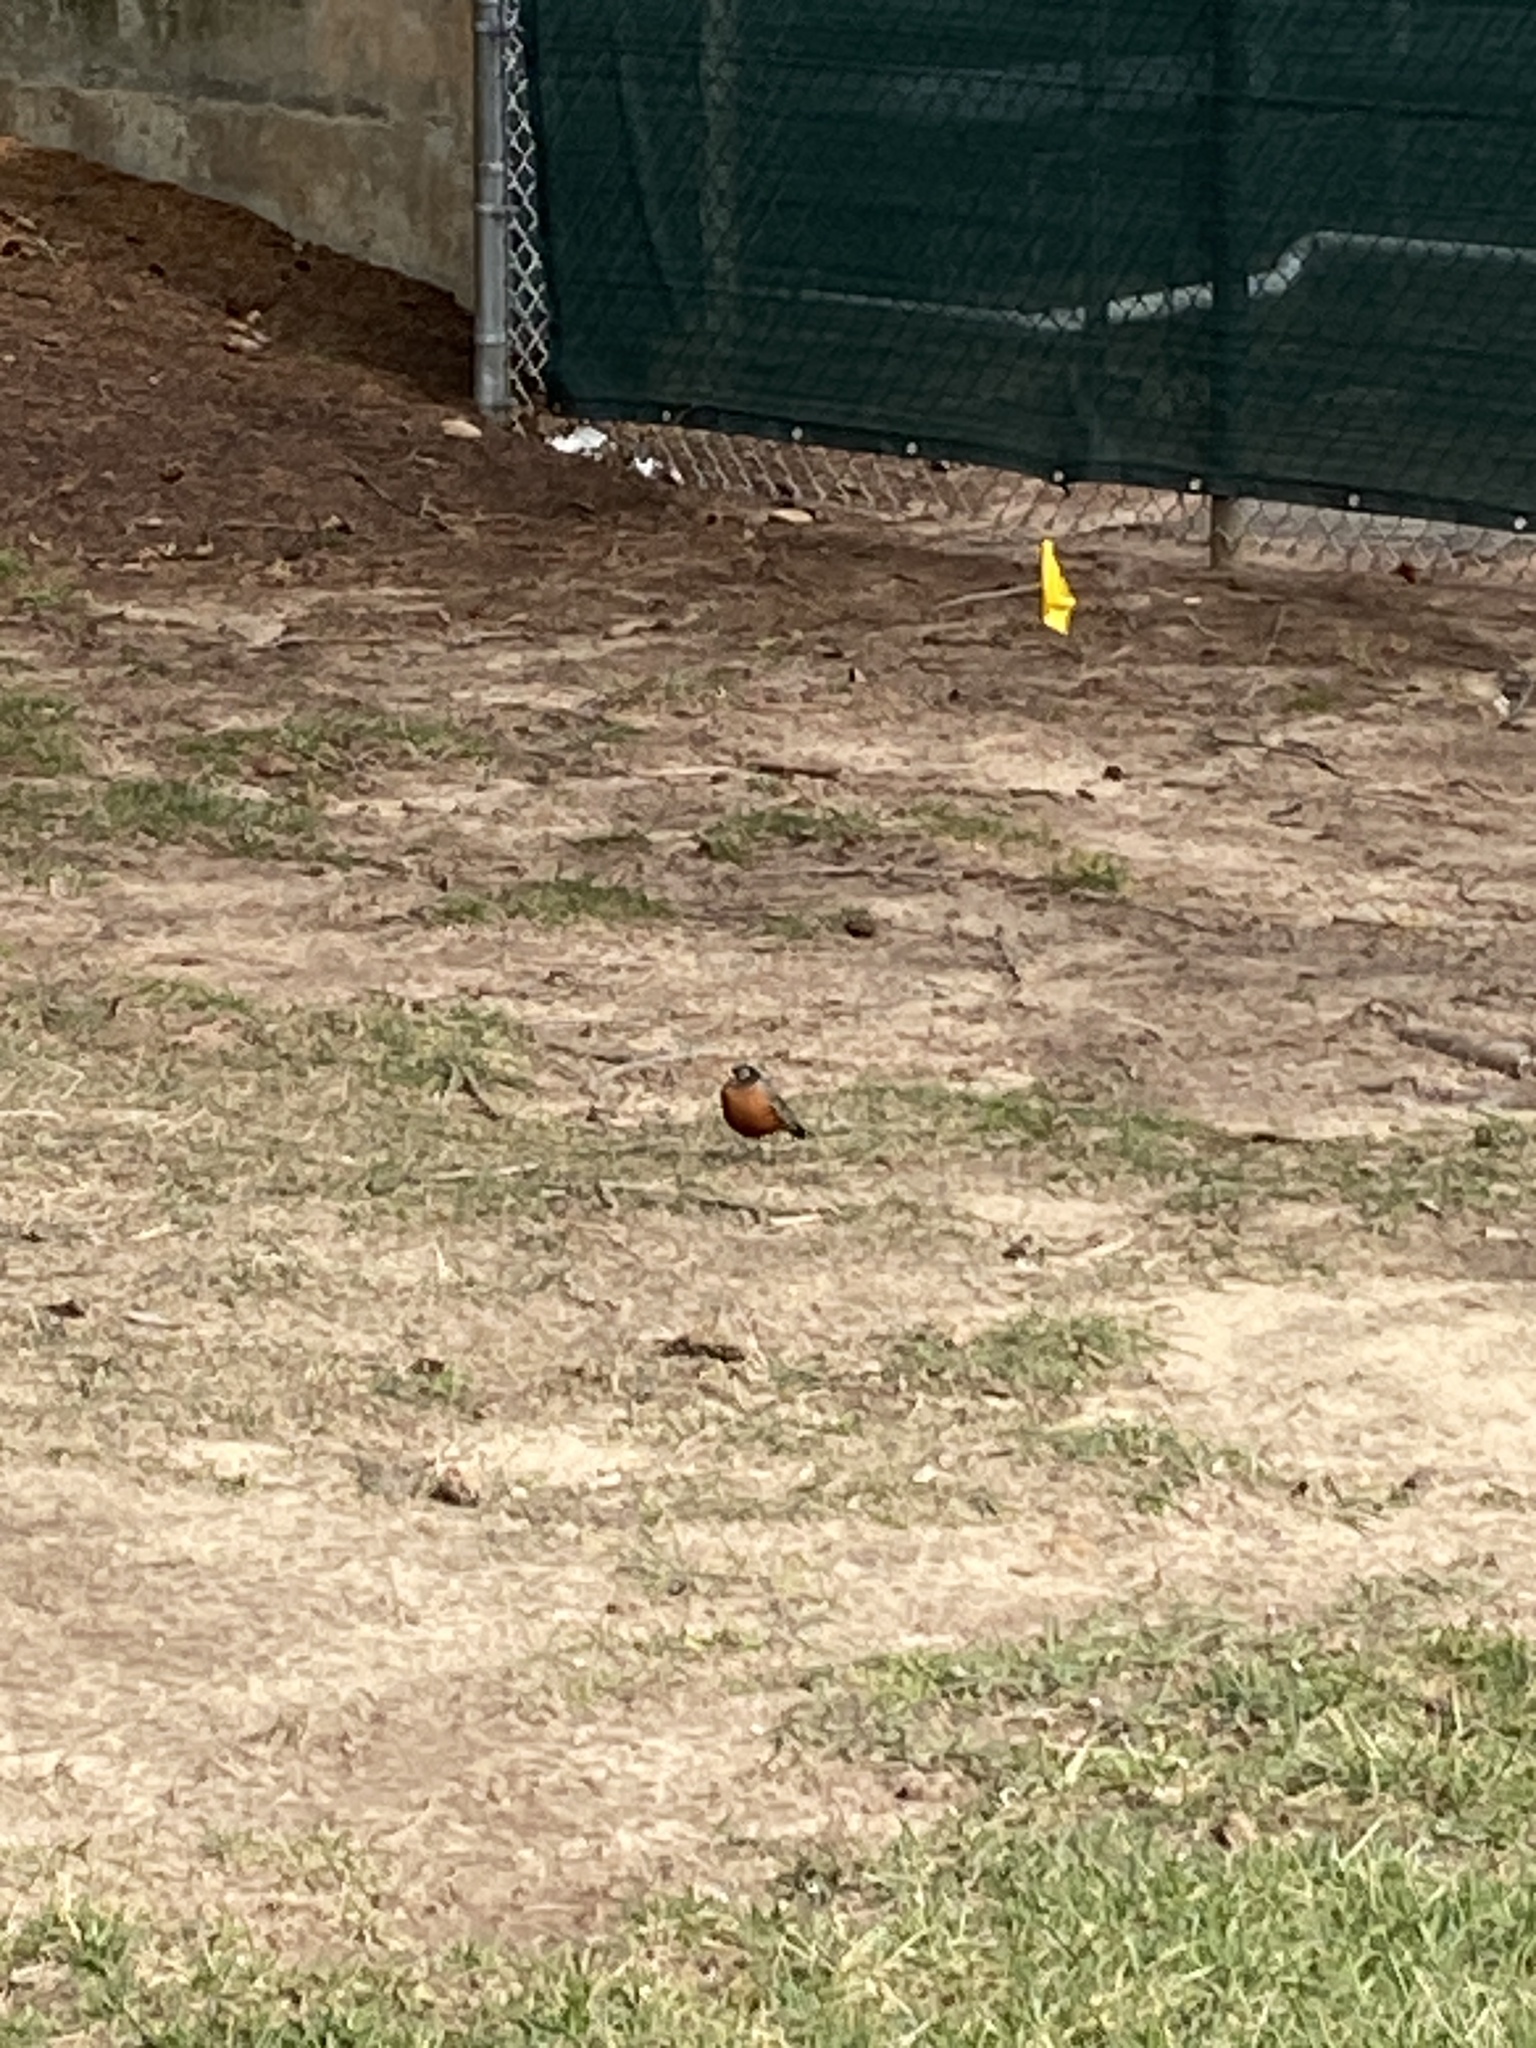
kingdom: Animalia
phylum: Chordata
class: Aves
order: Passeriformes
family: Turdidae
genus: Turdus
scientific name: Turdus migratorius
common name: American robin
